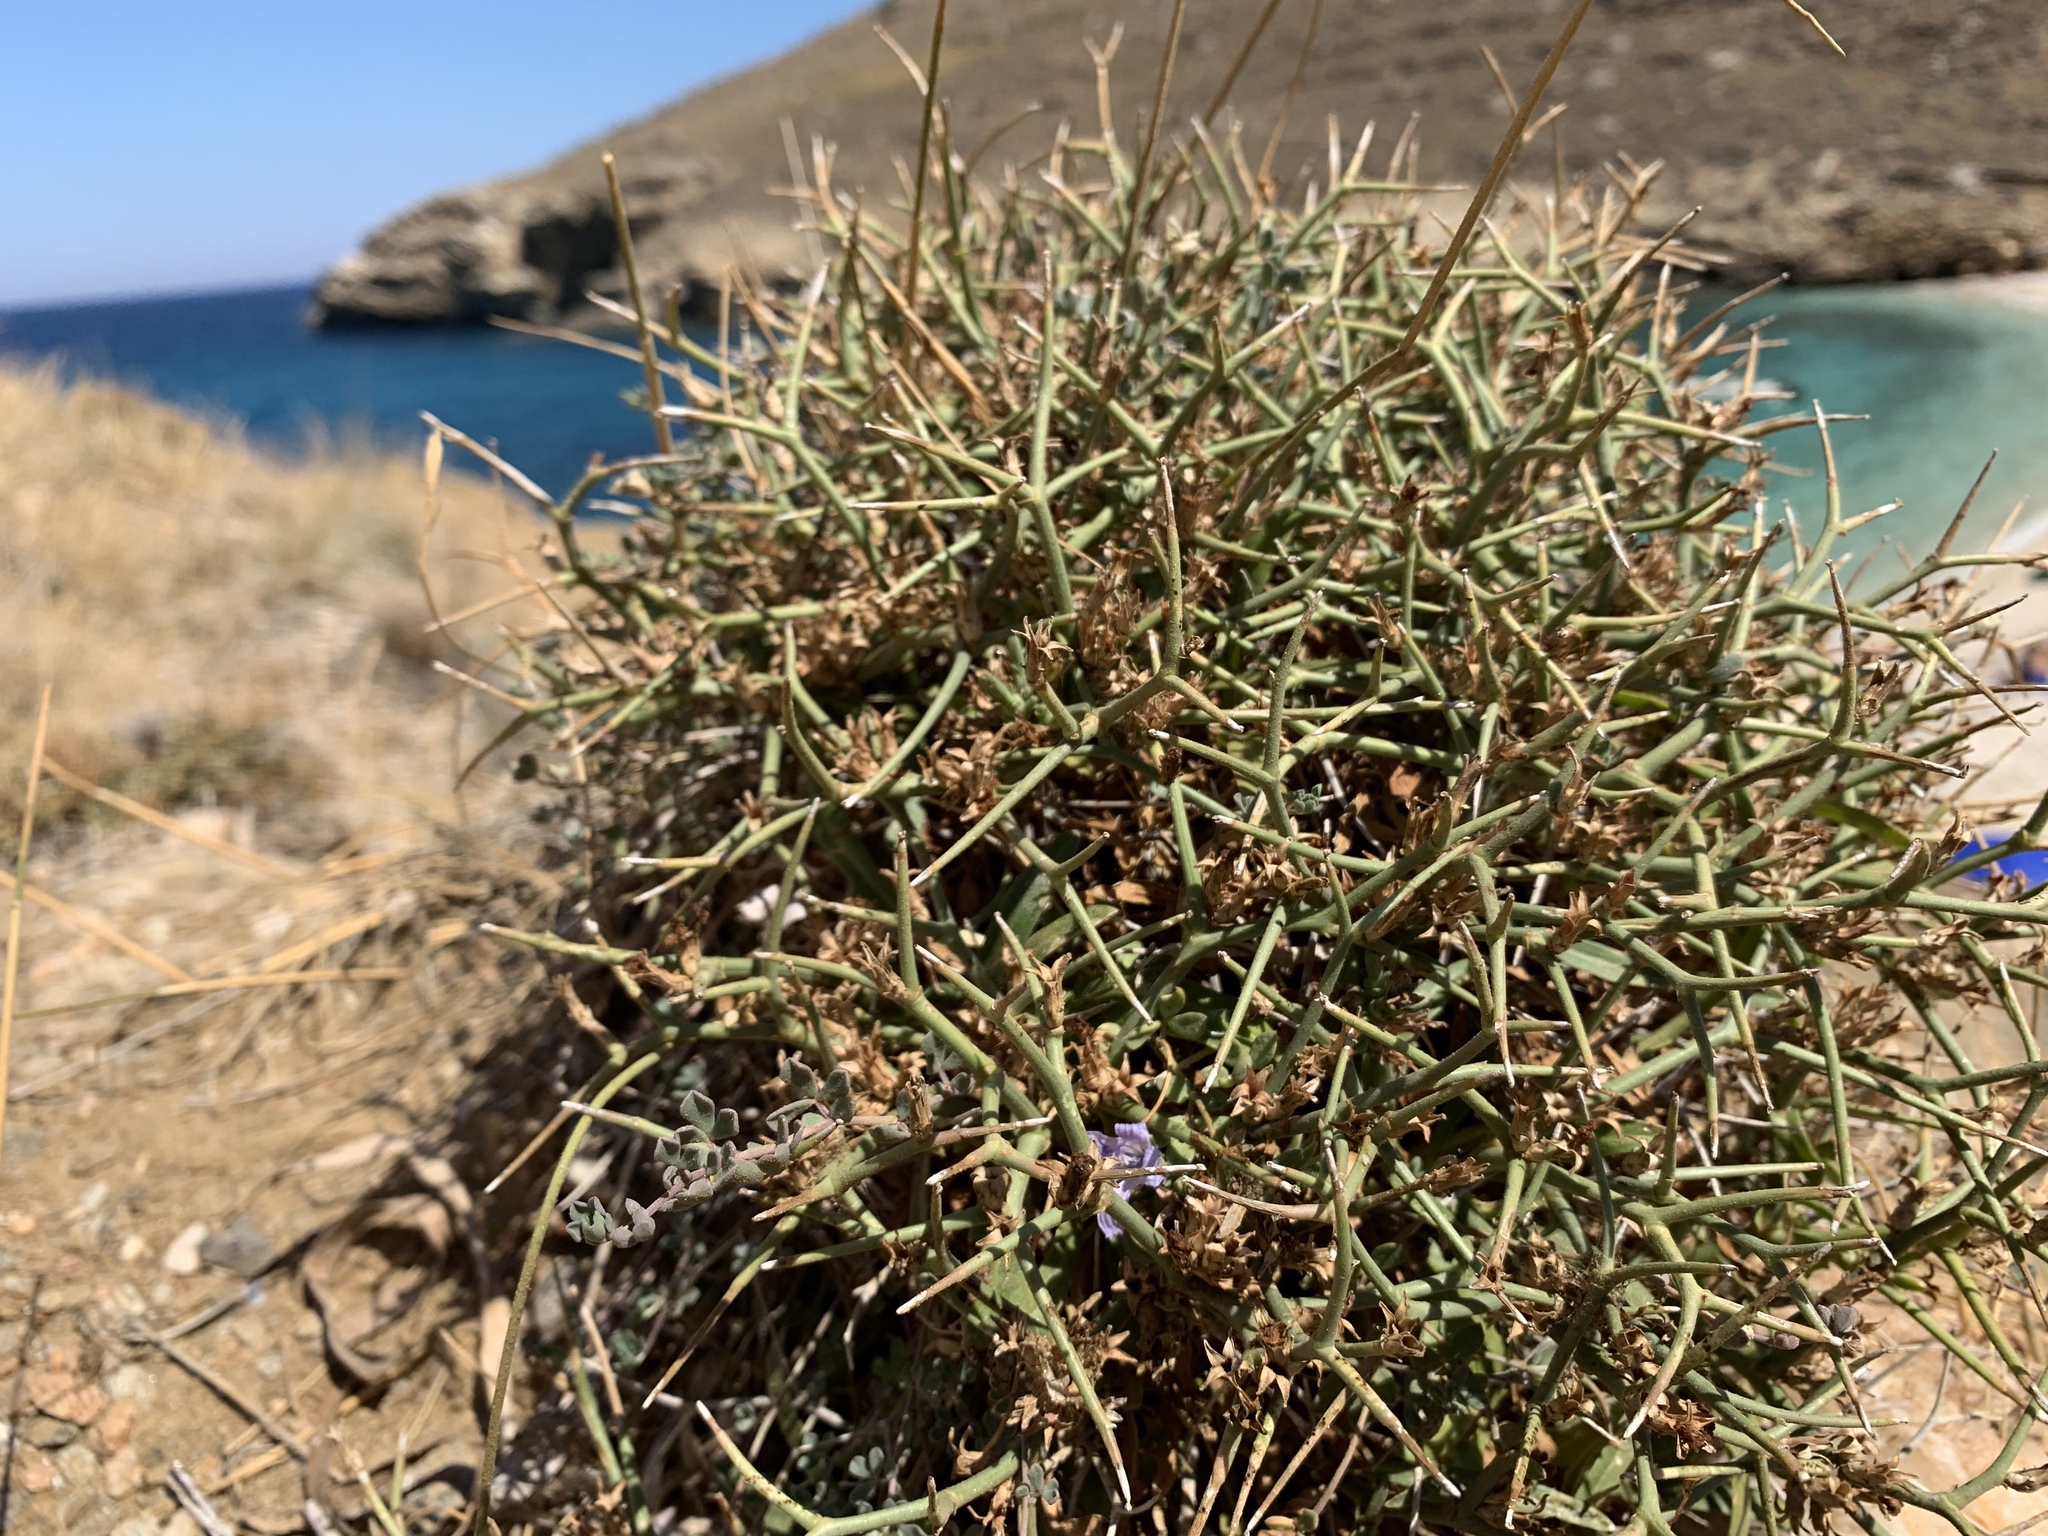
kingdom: Plantae
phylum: Tracheophyta
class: Magnoliopsida
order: Asterales
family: Asteraceae
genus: Cichorium
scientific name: Cichorium spinosum
